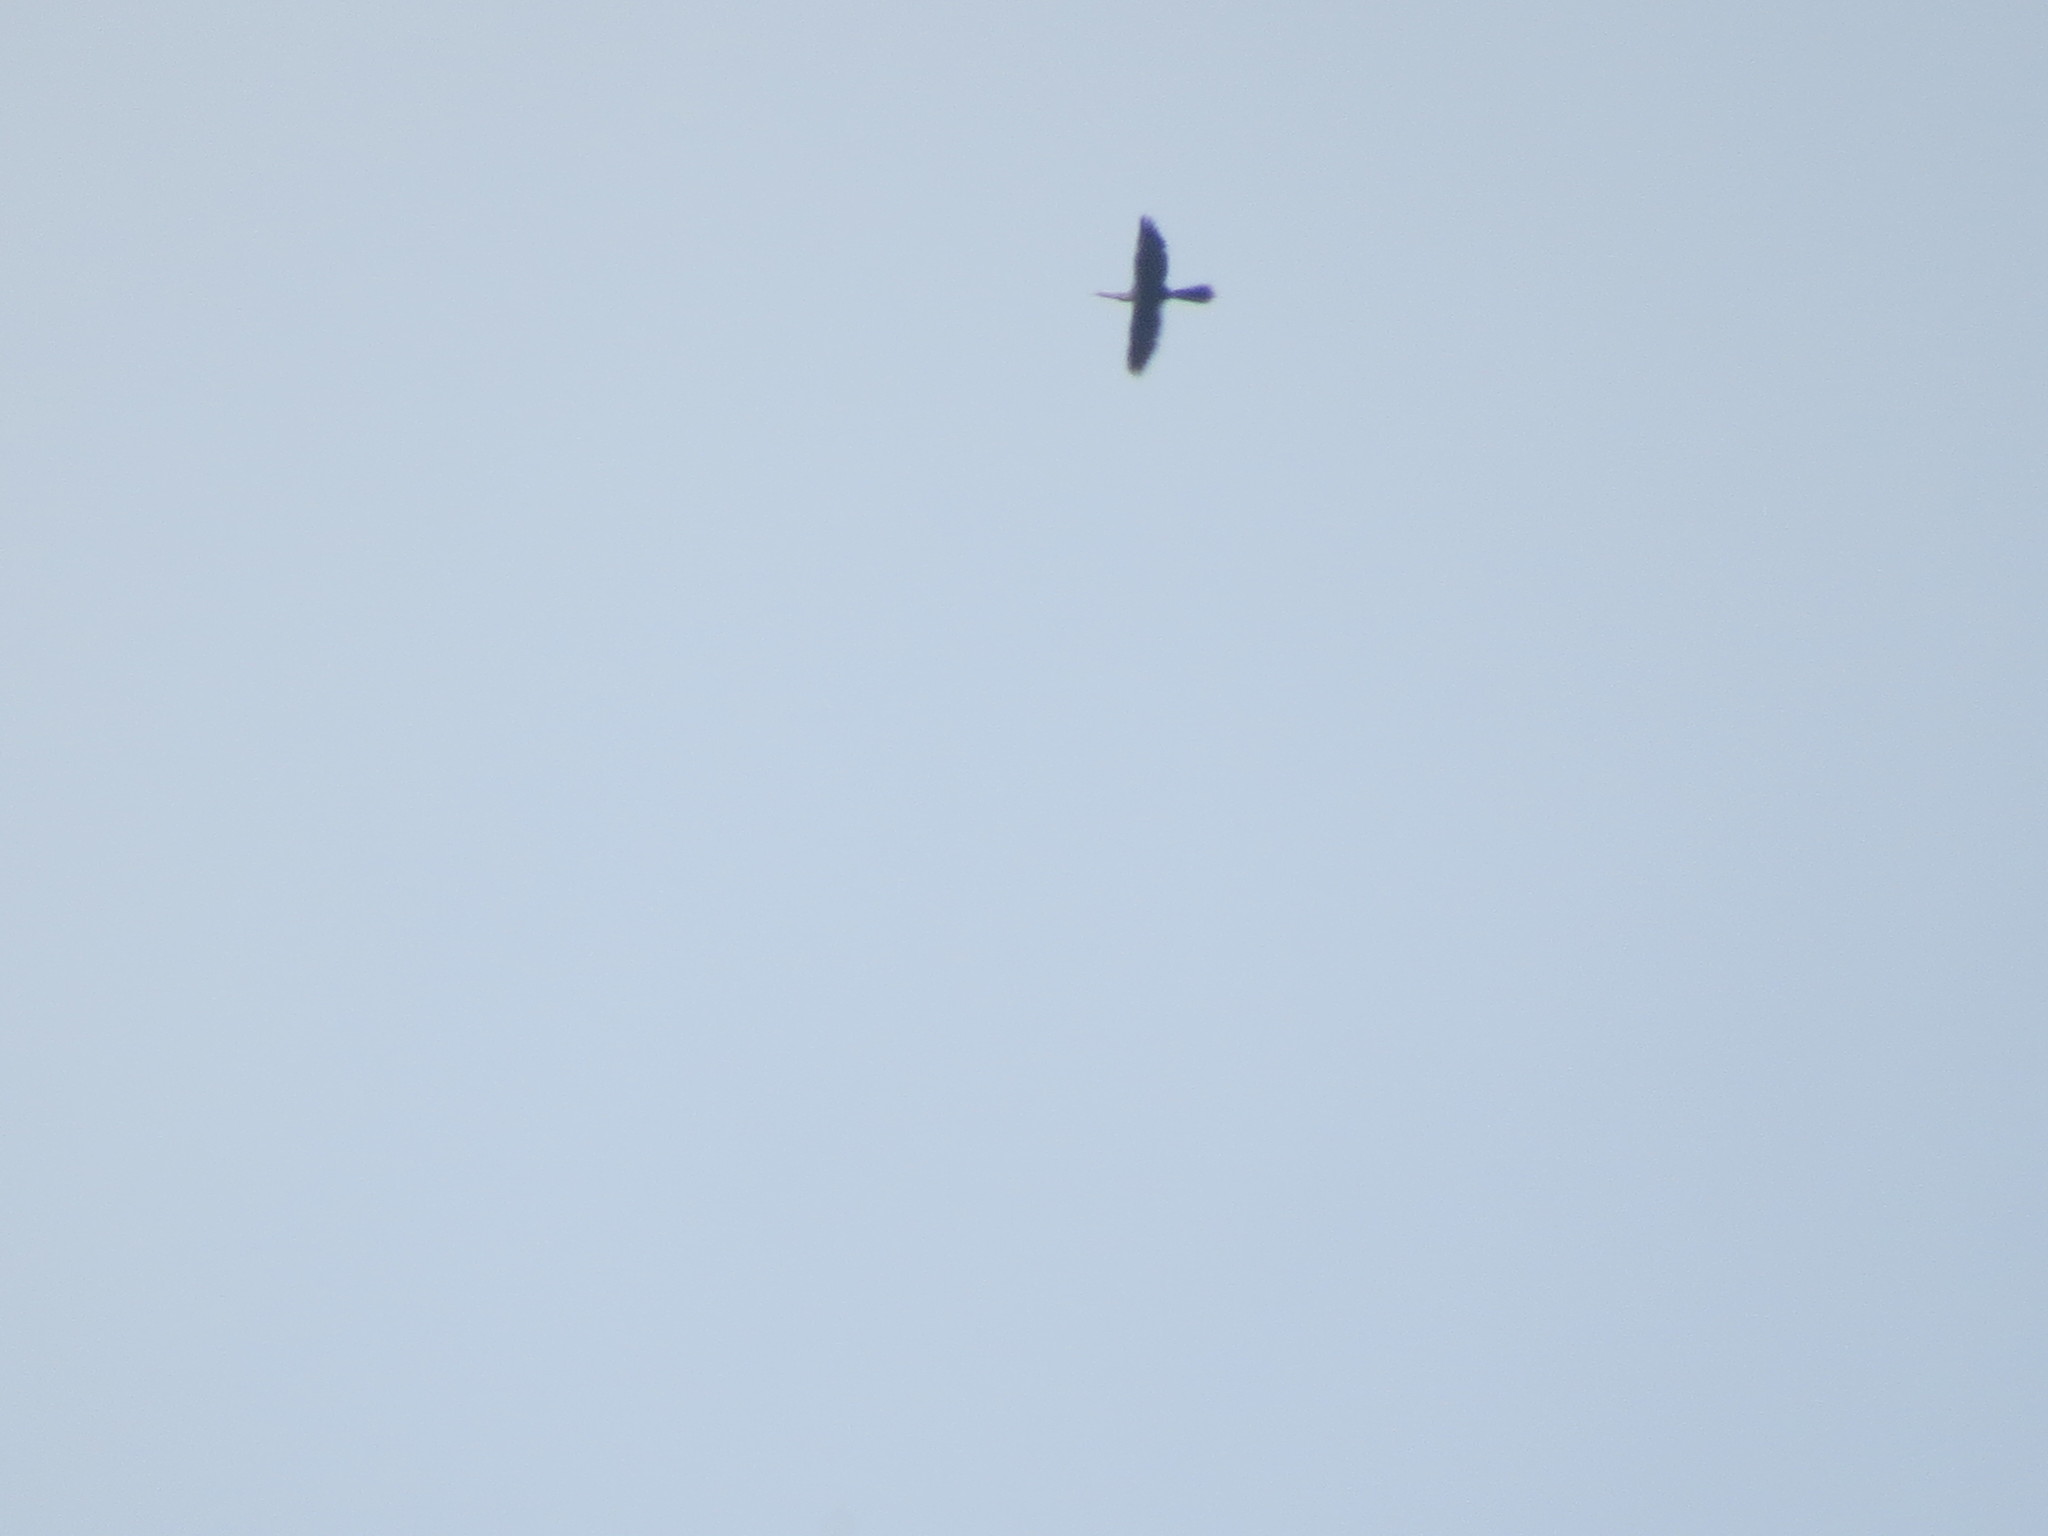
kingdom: Animalia
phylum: Chordata
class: Aves
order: Suliformes
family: Anhingidae
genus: Anhinga
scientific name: Anhinga anhinga
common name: Anhinga
